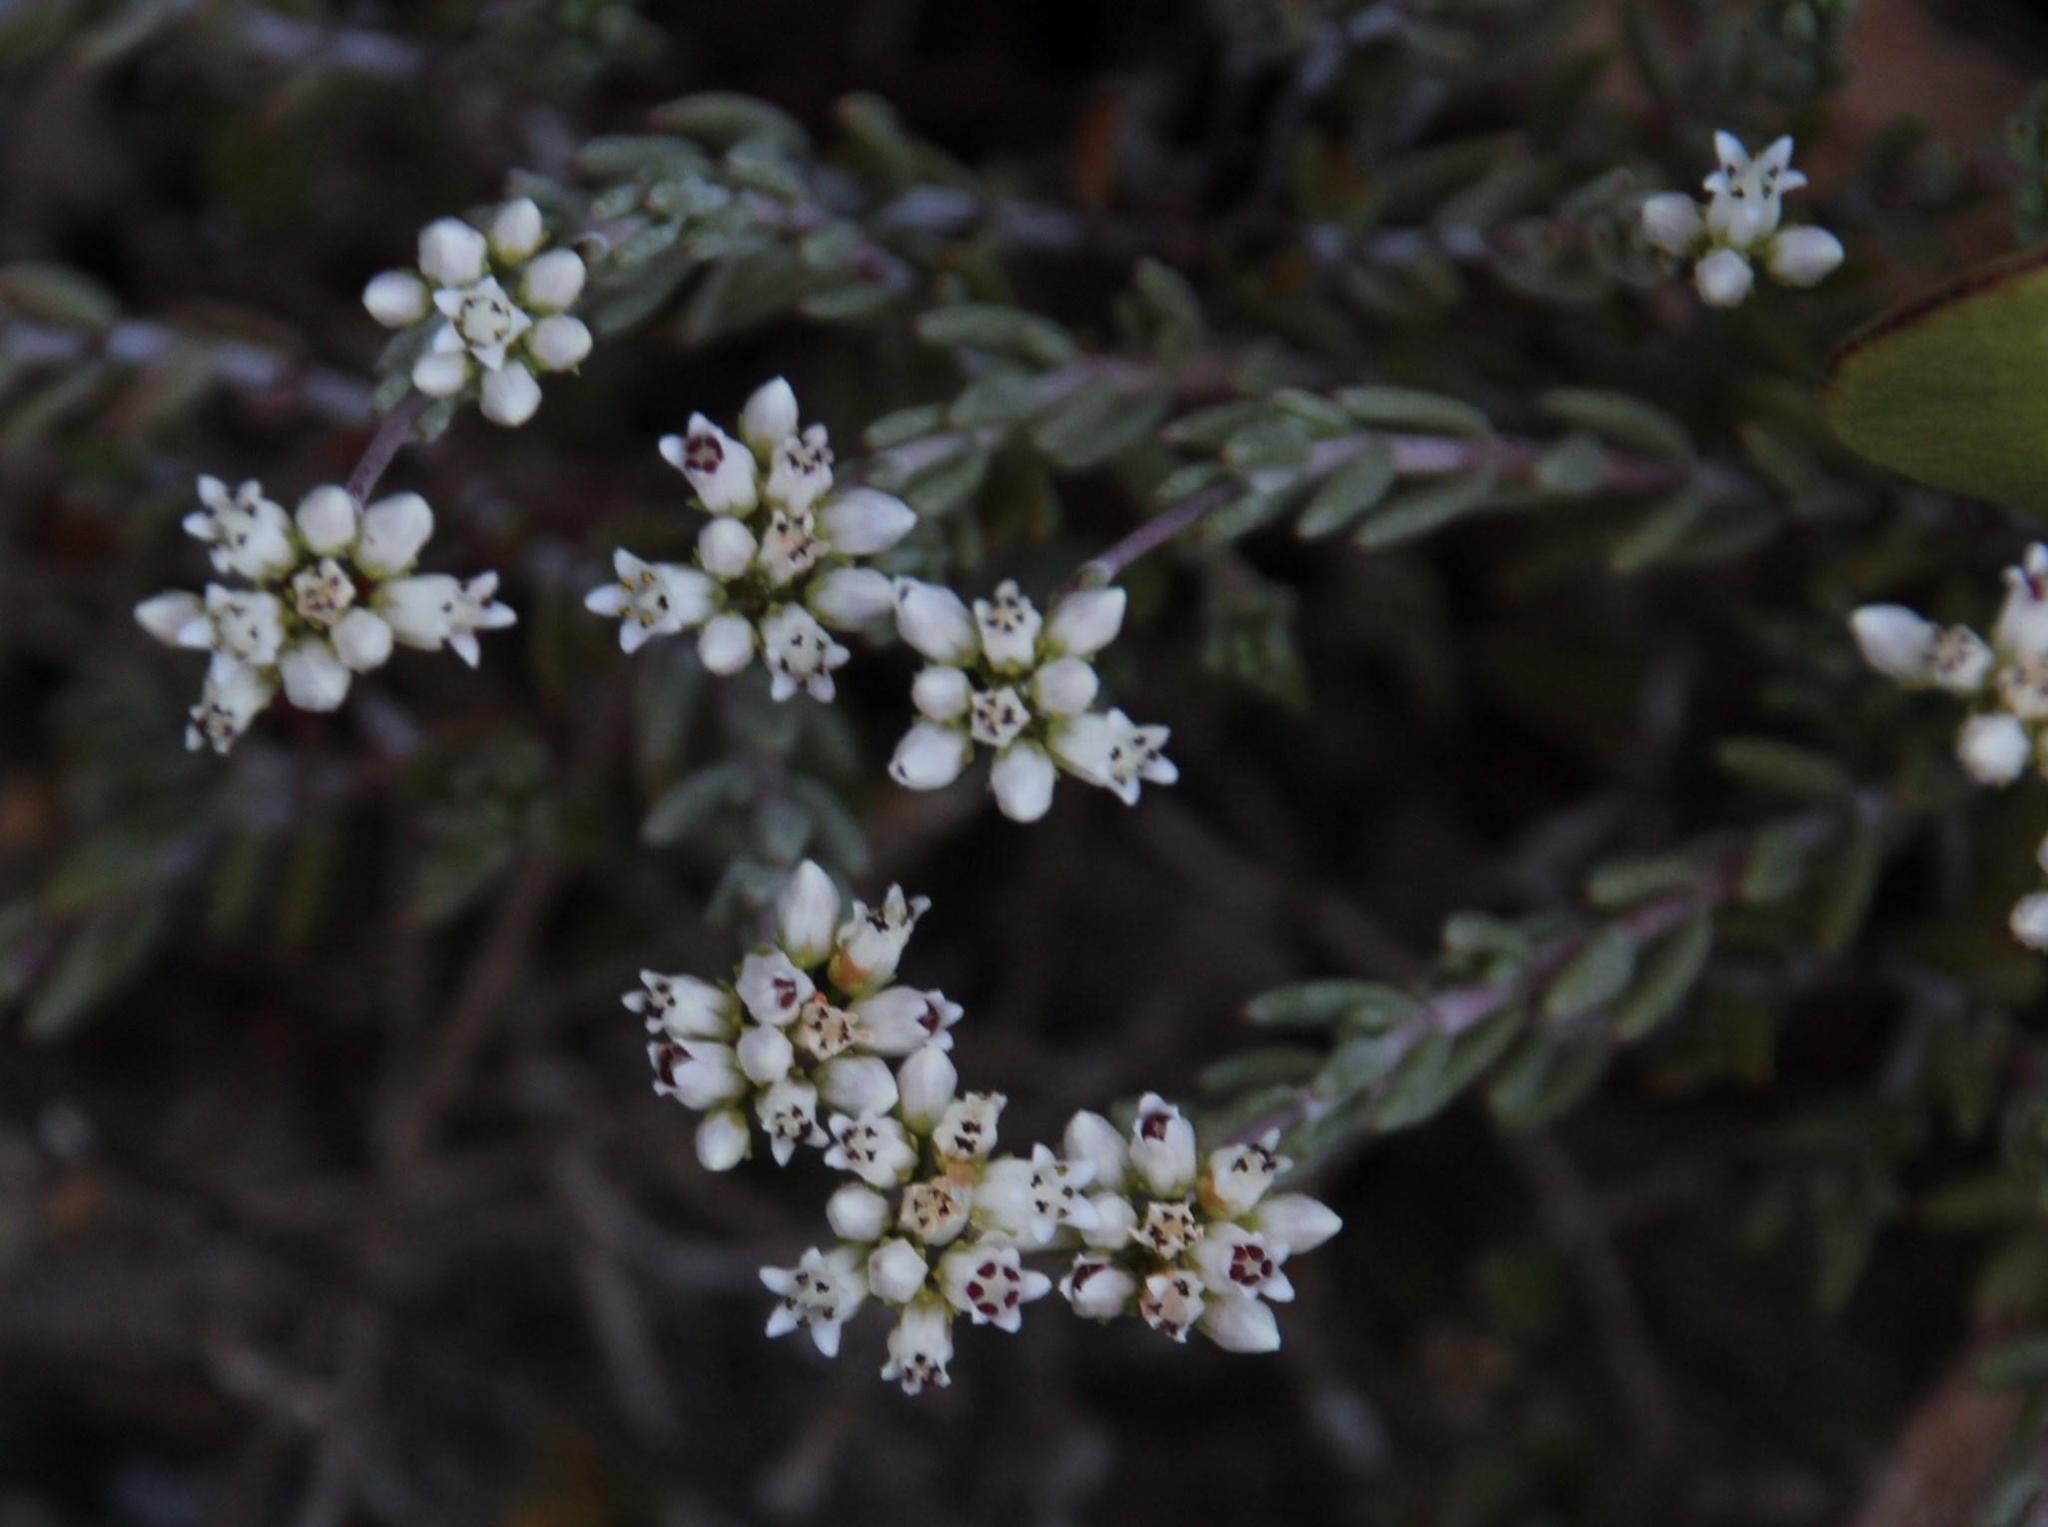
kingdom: Plantae
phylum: Tracheophyta
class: Magnoliopsida
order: Saxifragales
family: Crassulaceae
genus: Crassula
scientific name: Crassula biplanata
